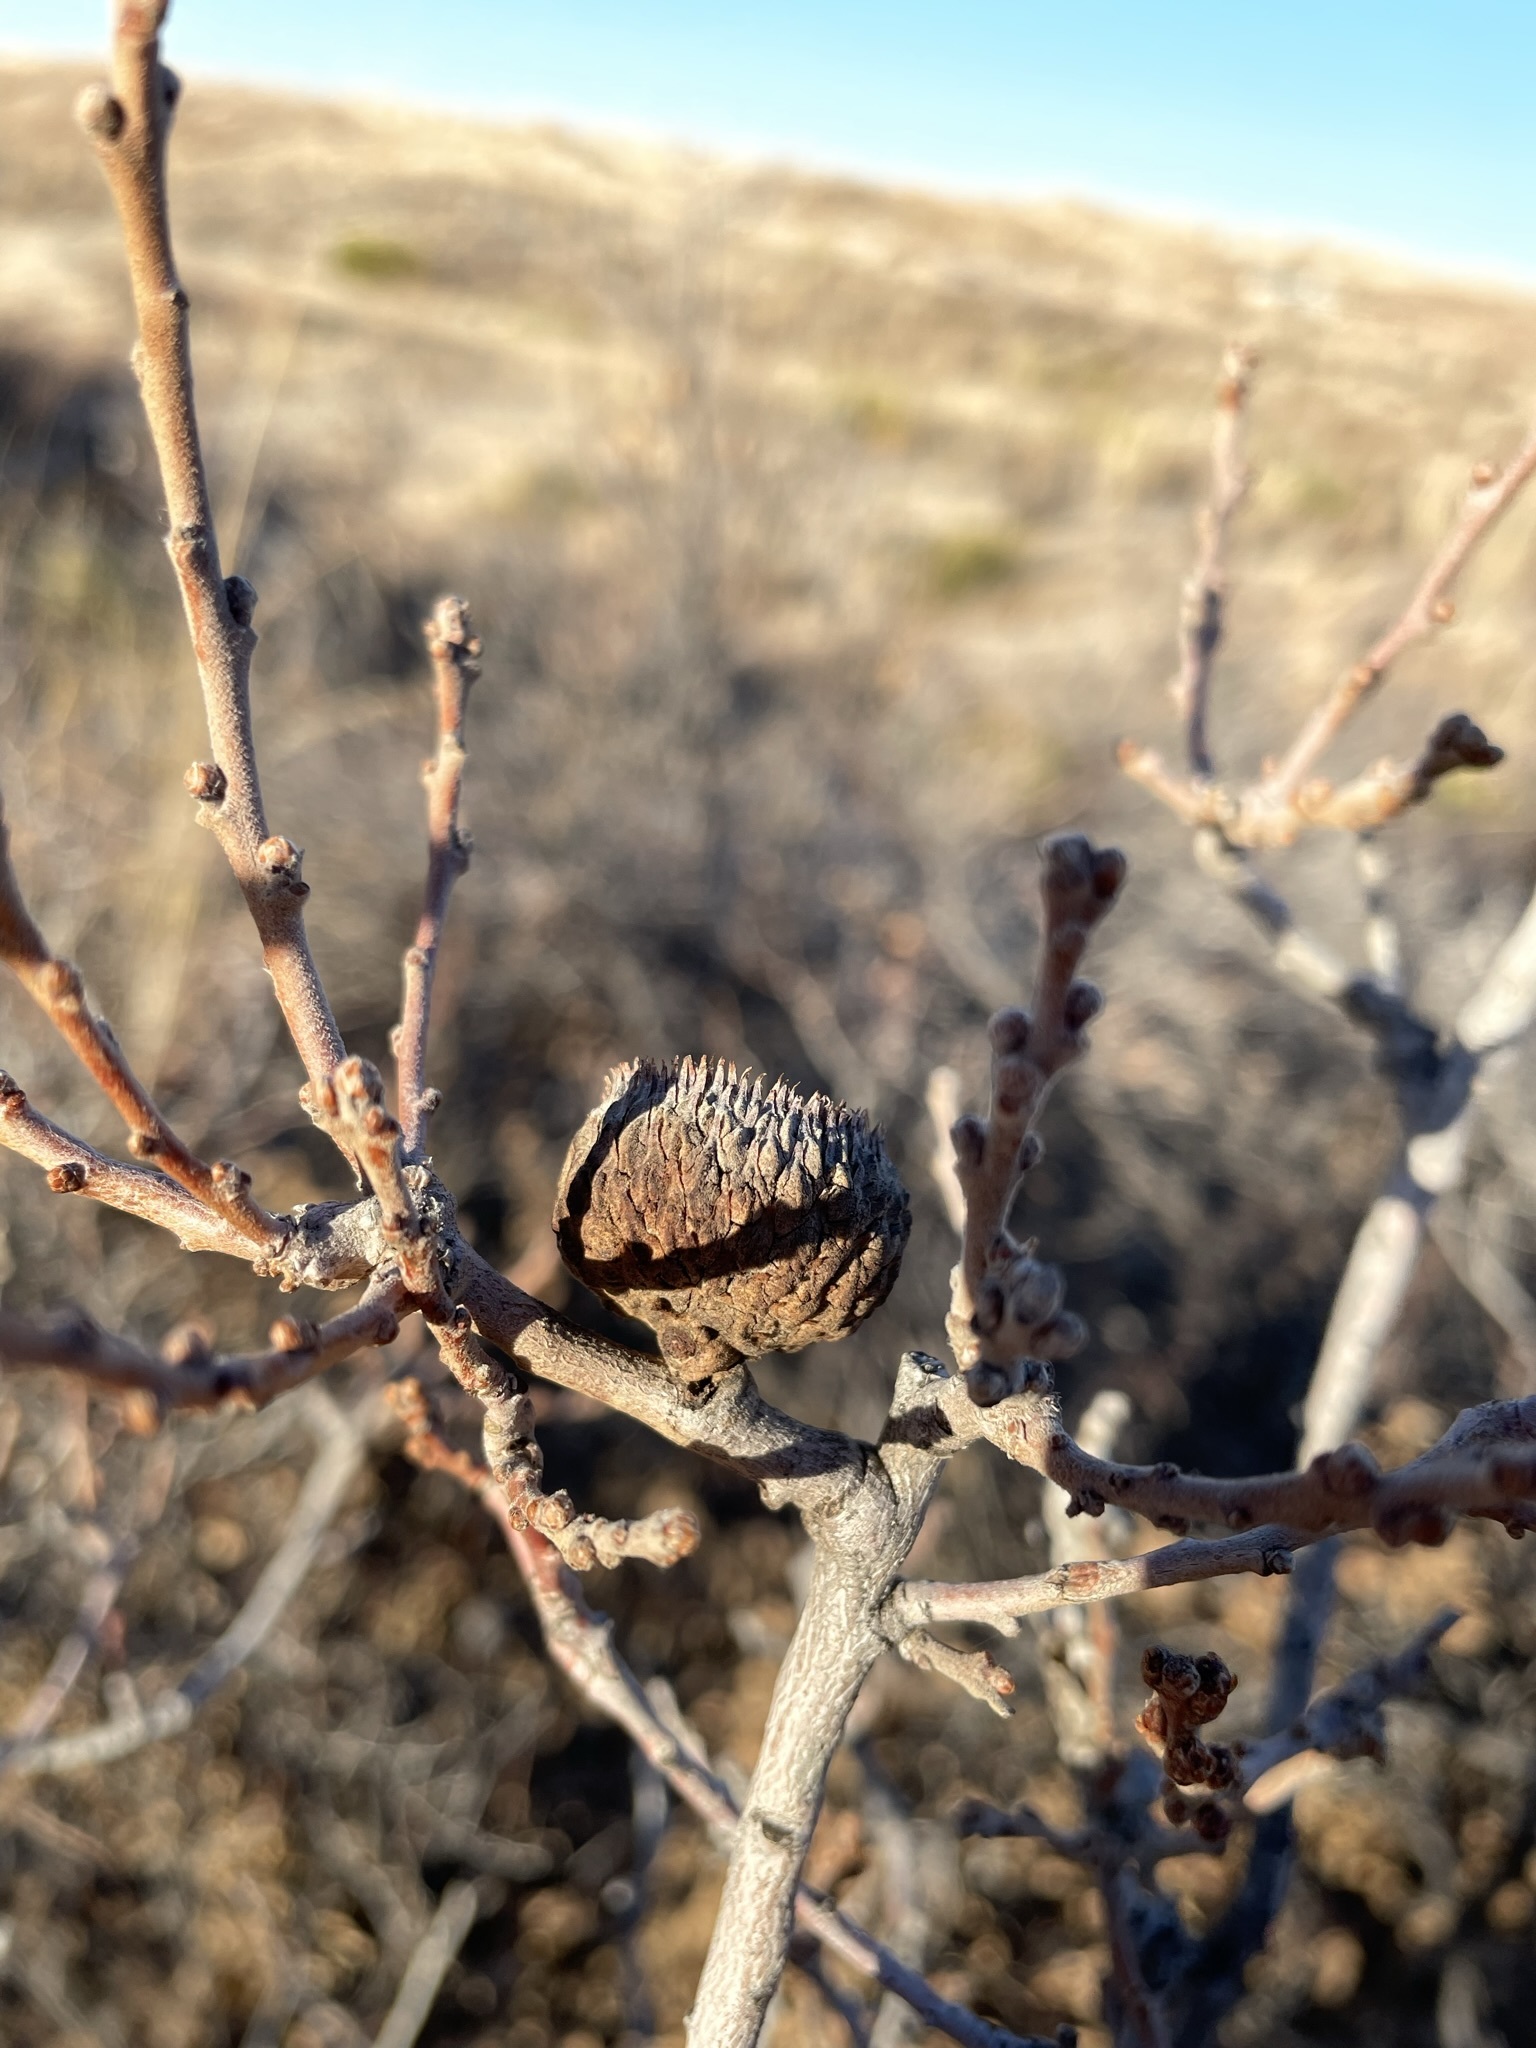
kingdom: Plantae
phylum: Tracheophyta
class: Magnoliopsida
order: Fagales
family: Fagaceae
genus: Quercus
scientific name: Quercus havardii
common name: Shinnery oak
